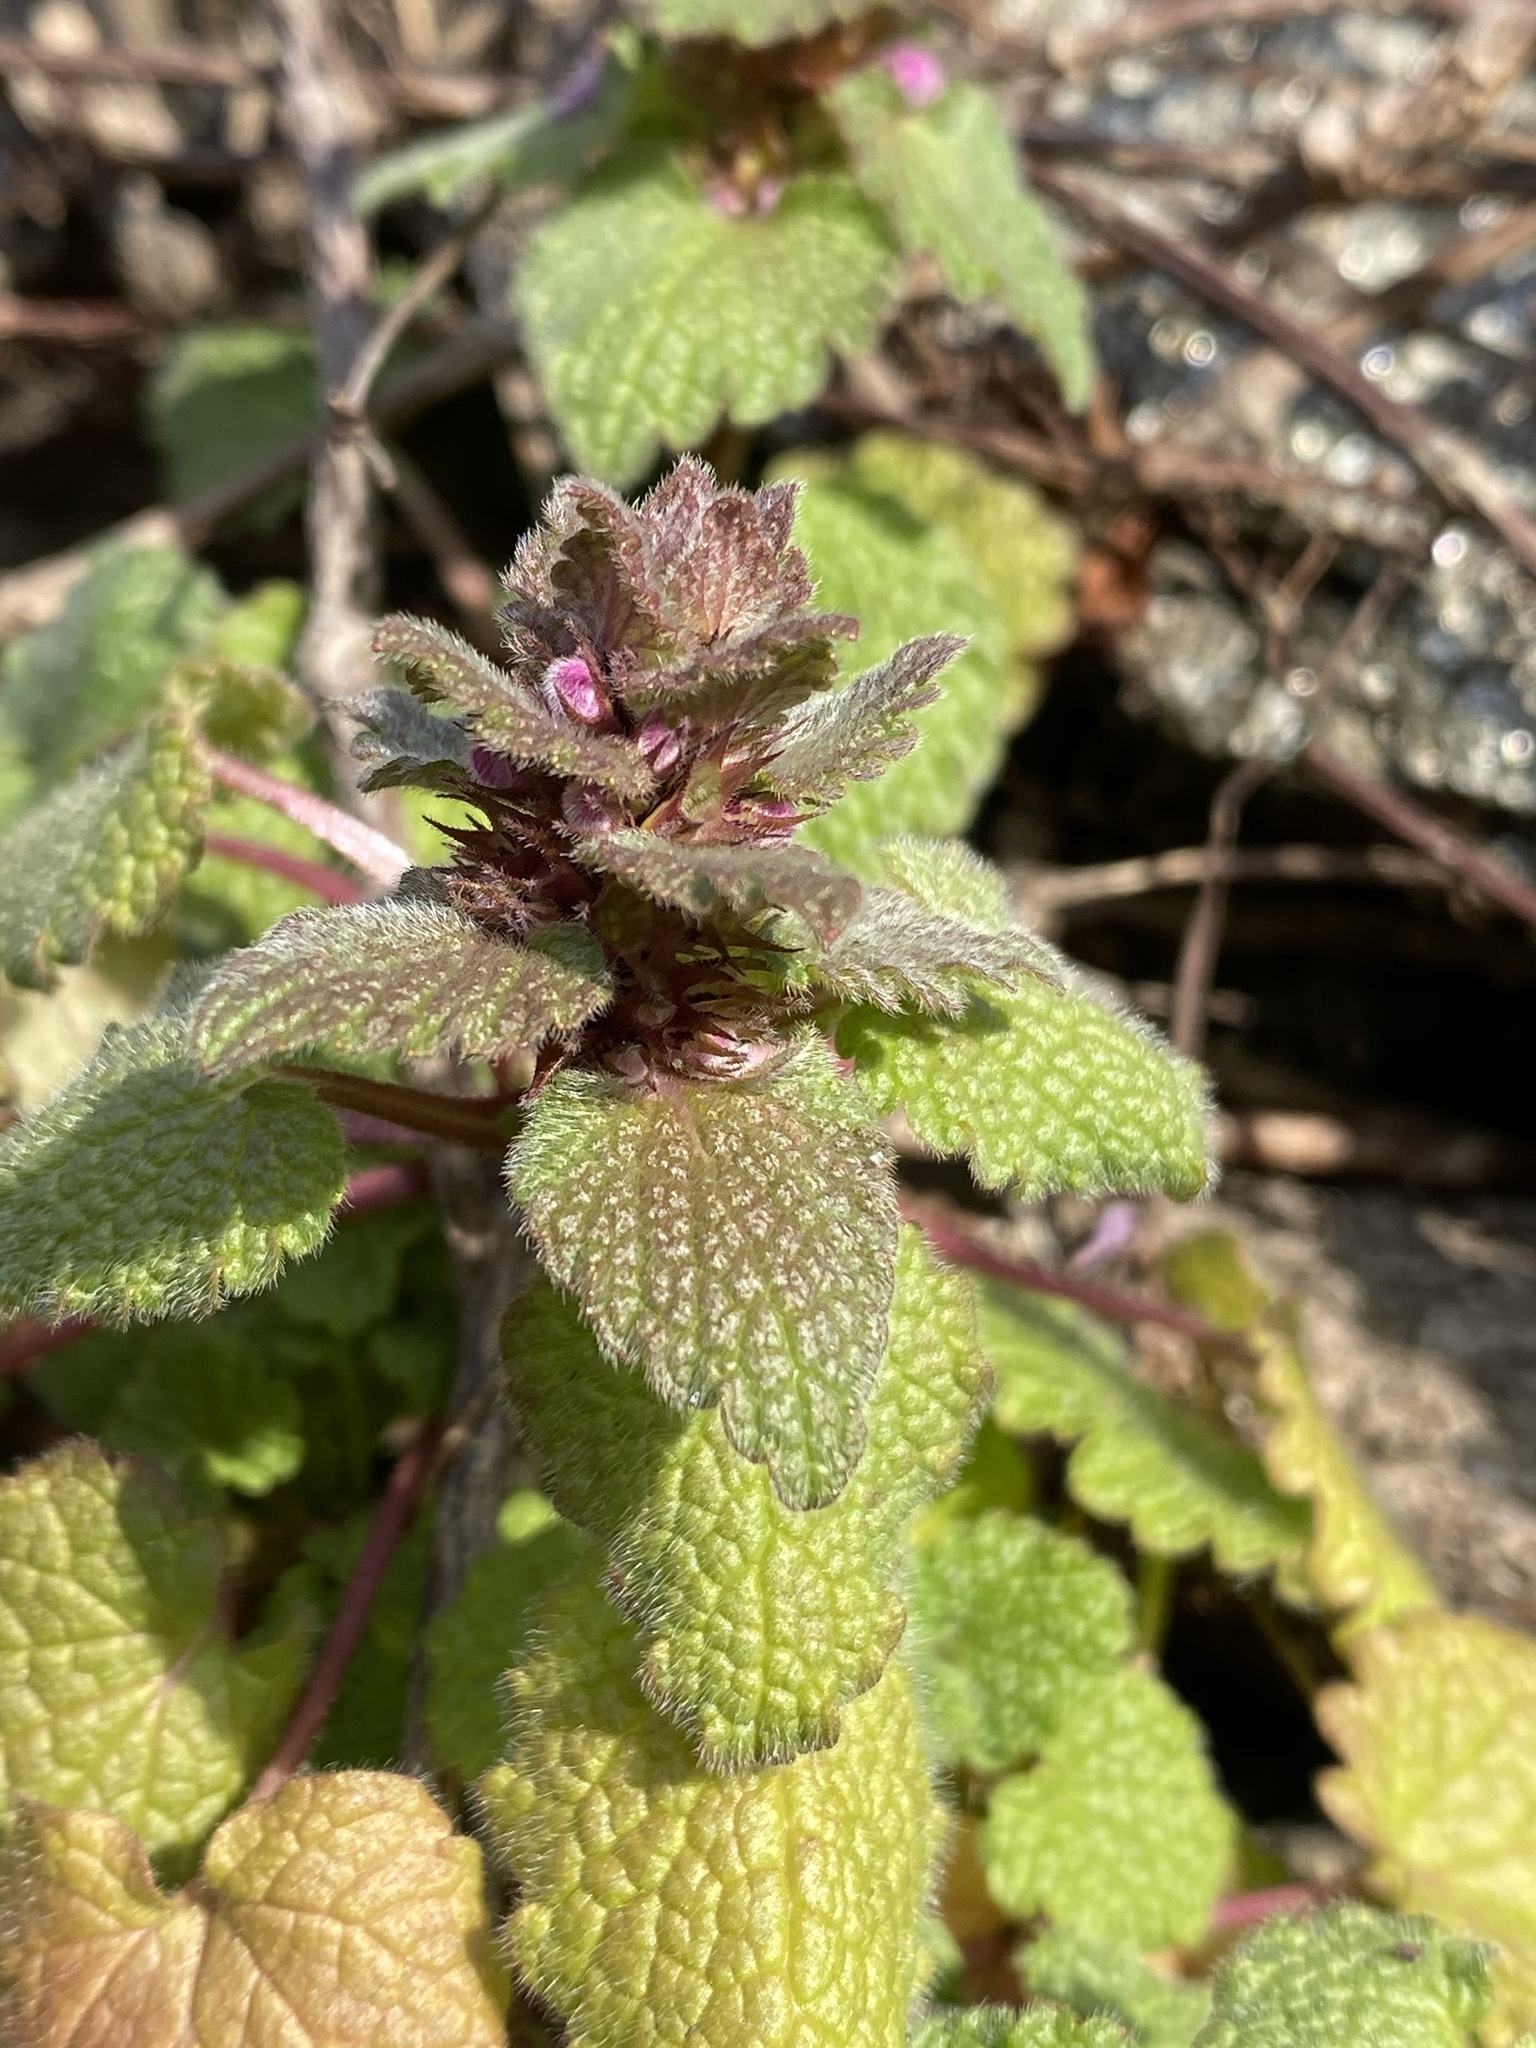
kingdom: Plantae
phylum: Tracheophyta
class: Magnoliopsida
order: Lamiales
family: Lamiaceae
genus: Lamium
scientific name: Lamium purpureum
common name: Red dead-nettle
